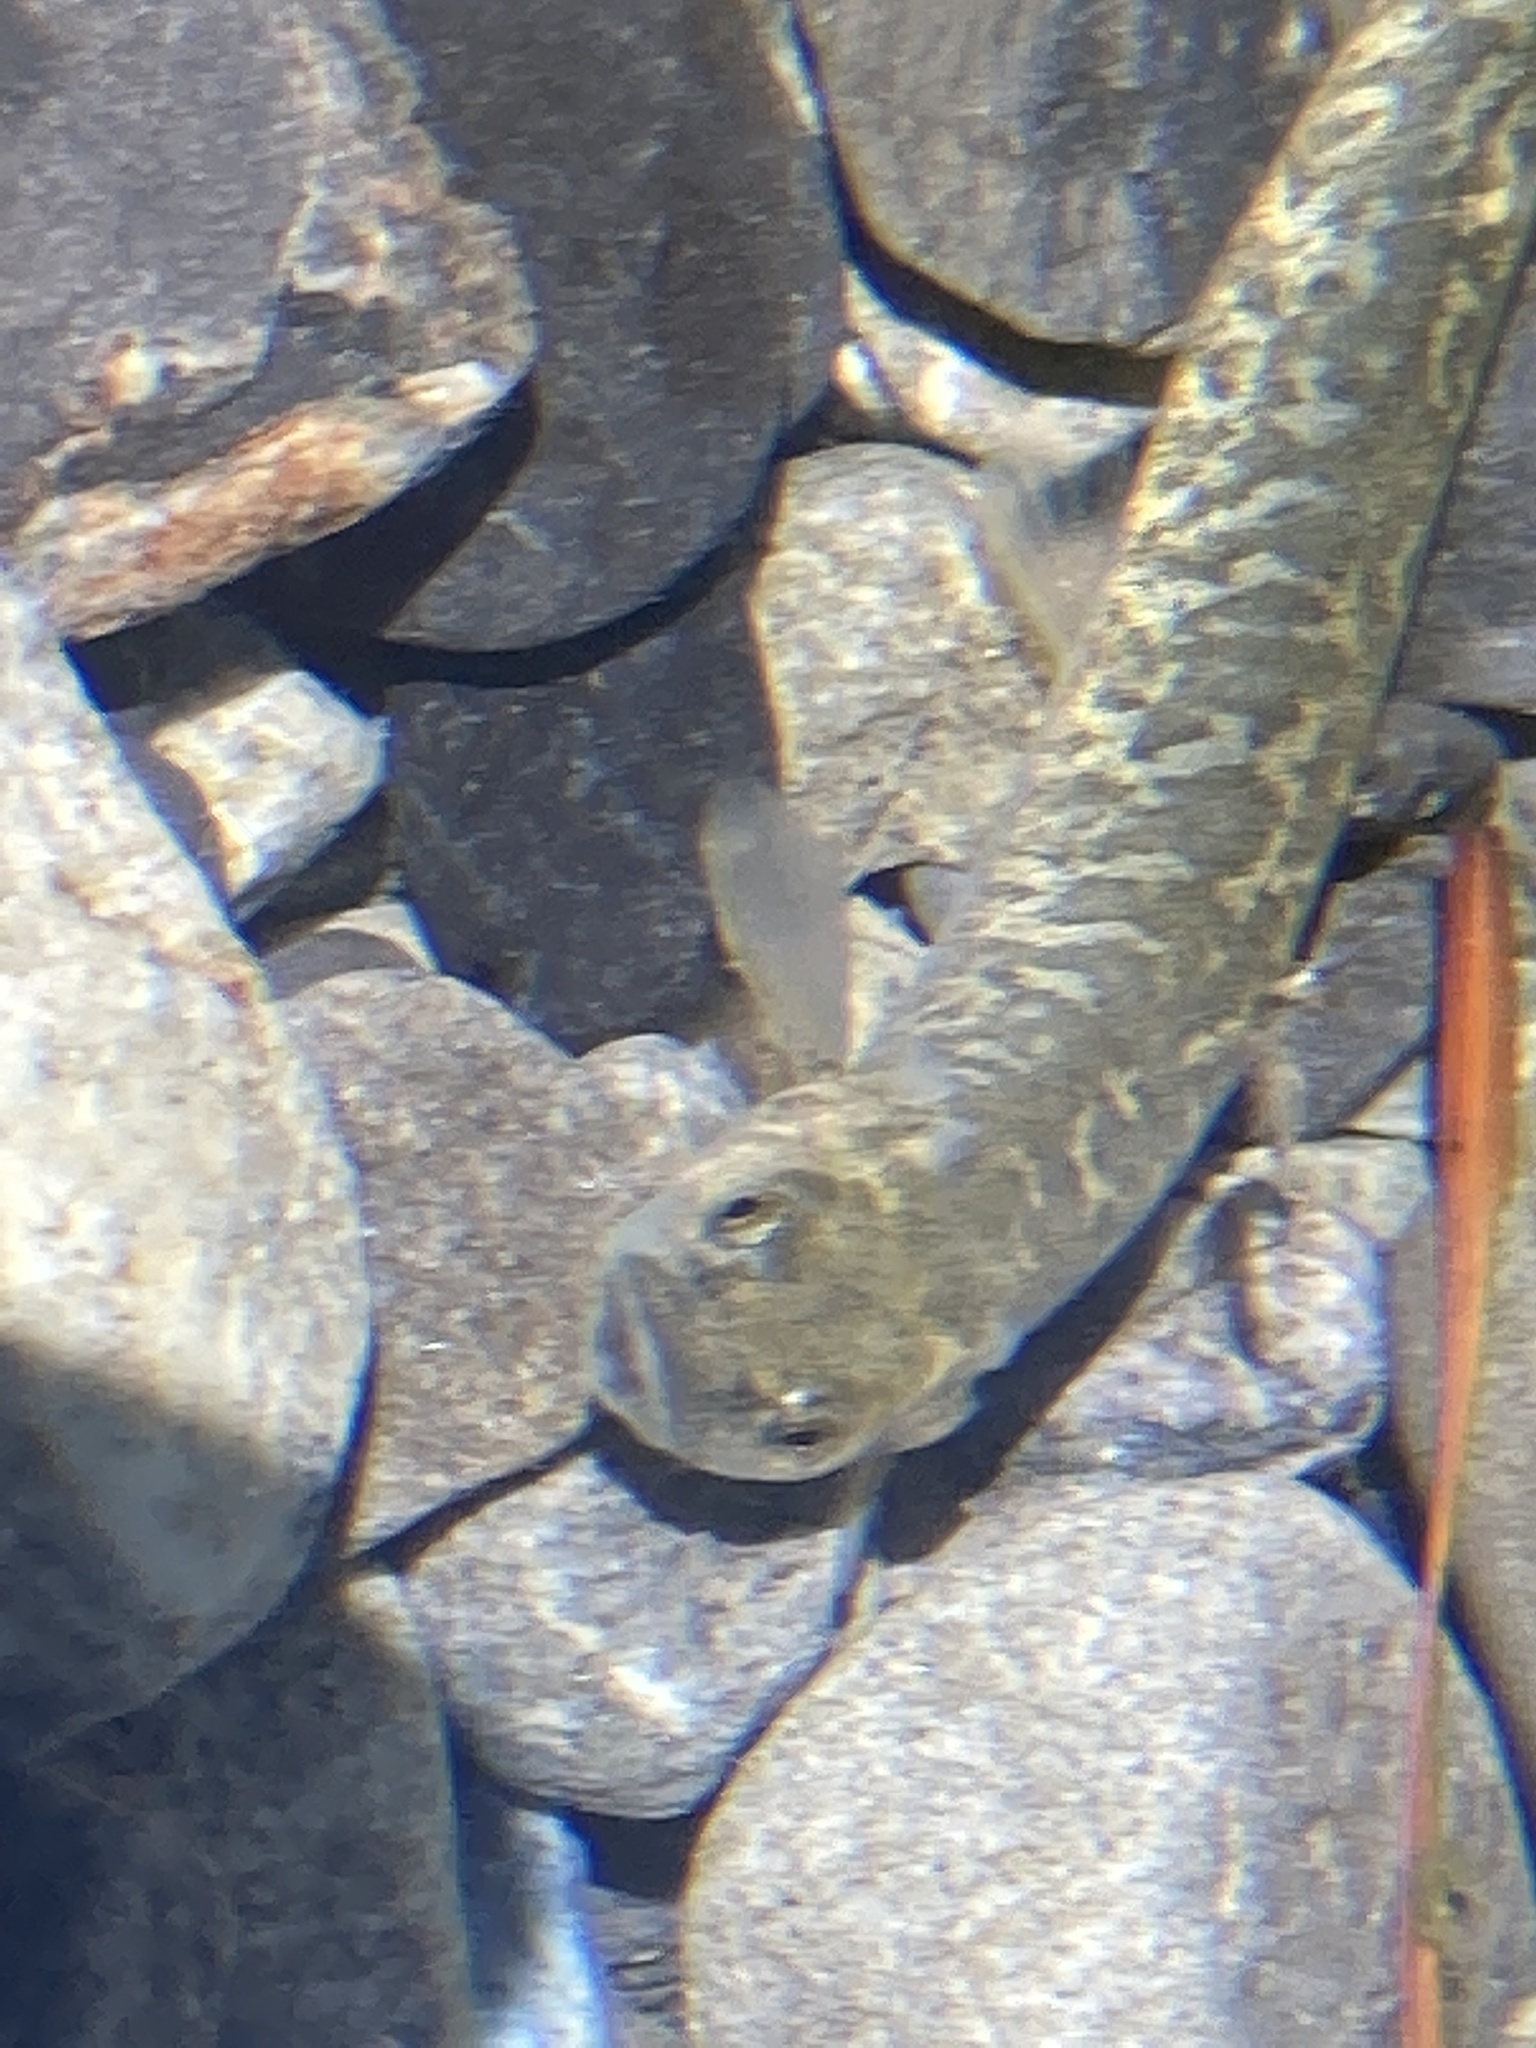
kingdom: Animalia
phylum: Chordata
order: Osmeriformes
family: Galaxiidae
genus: Galaxias
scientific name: Galaxias paucispondylus
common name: Alpine galaxias
